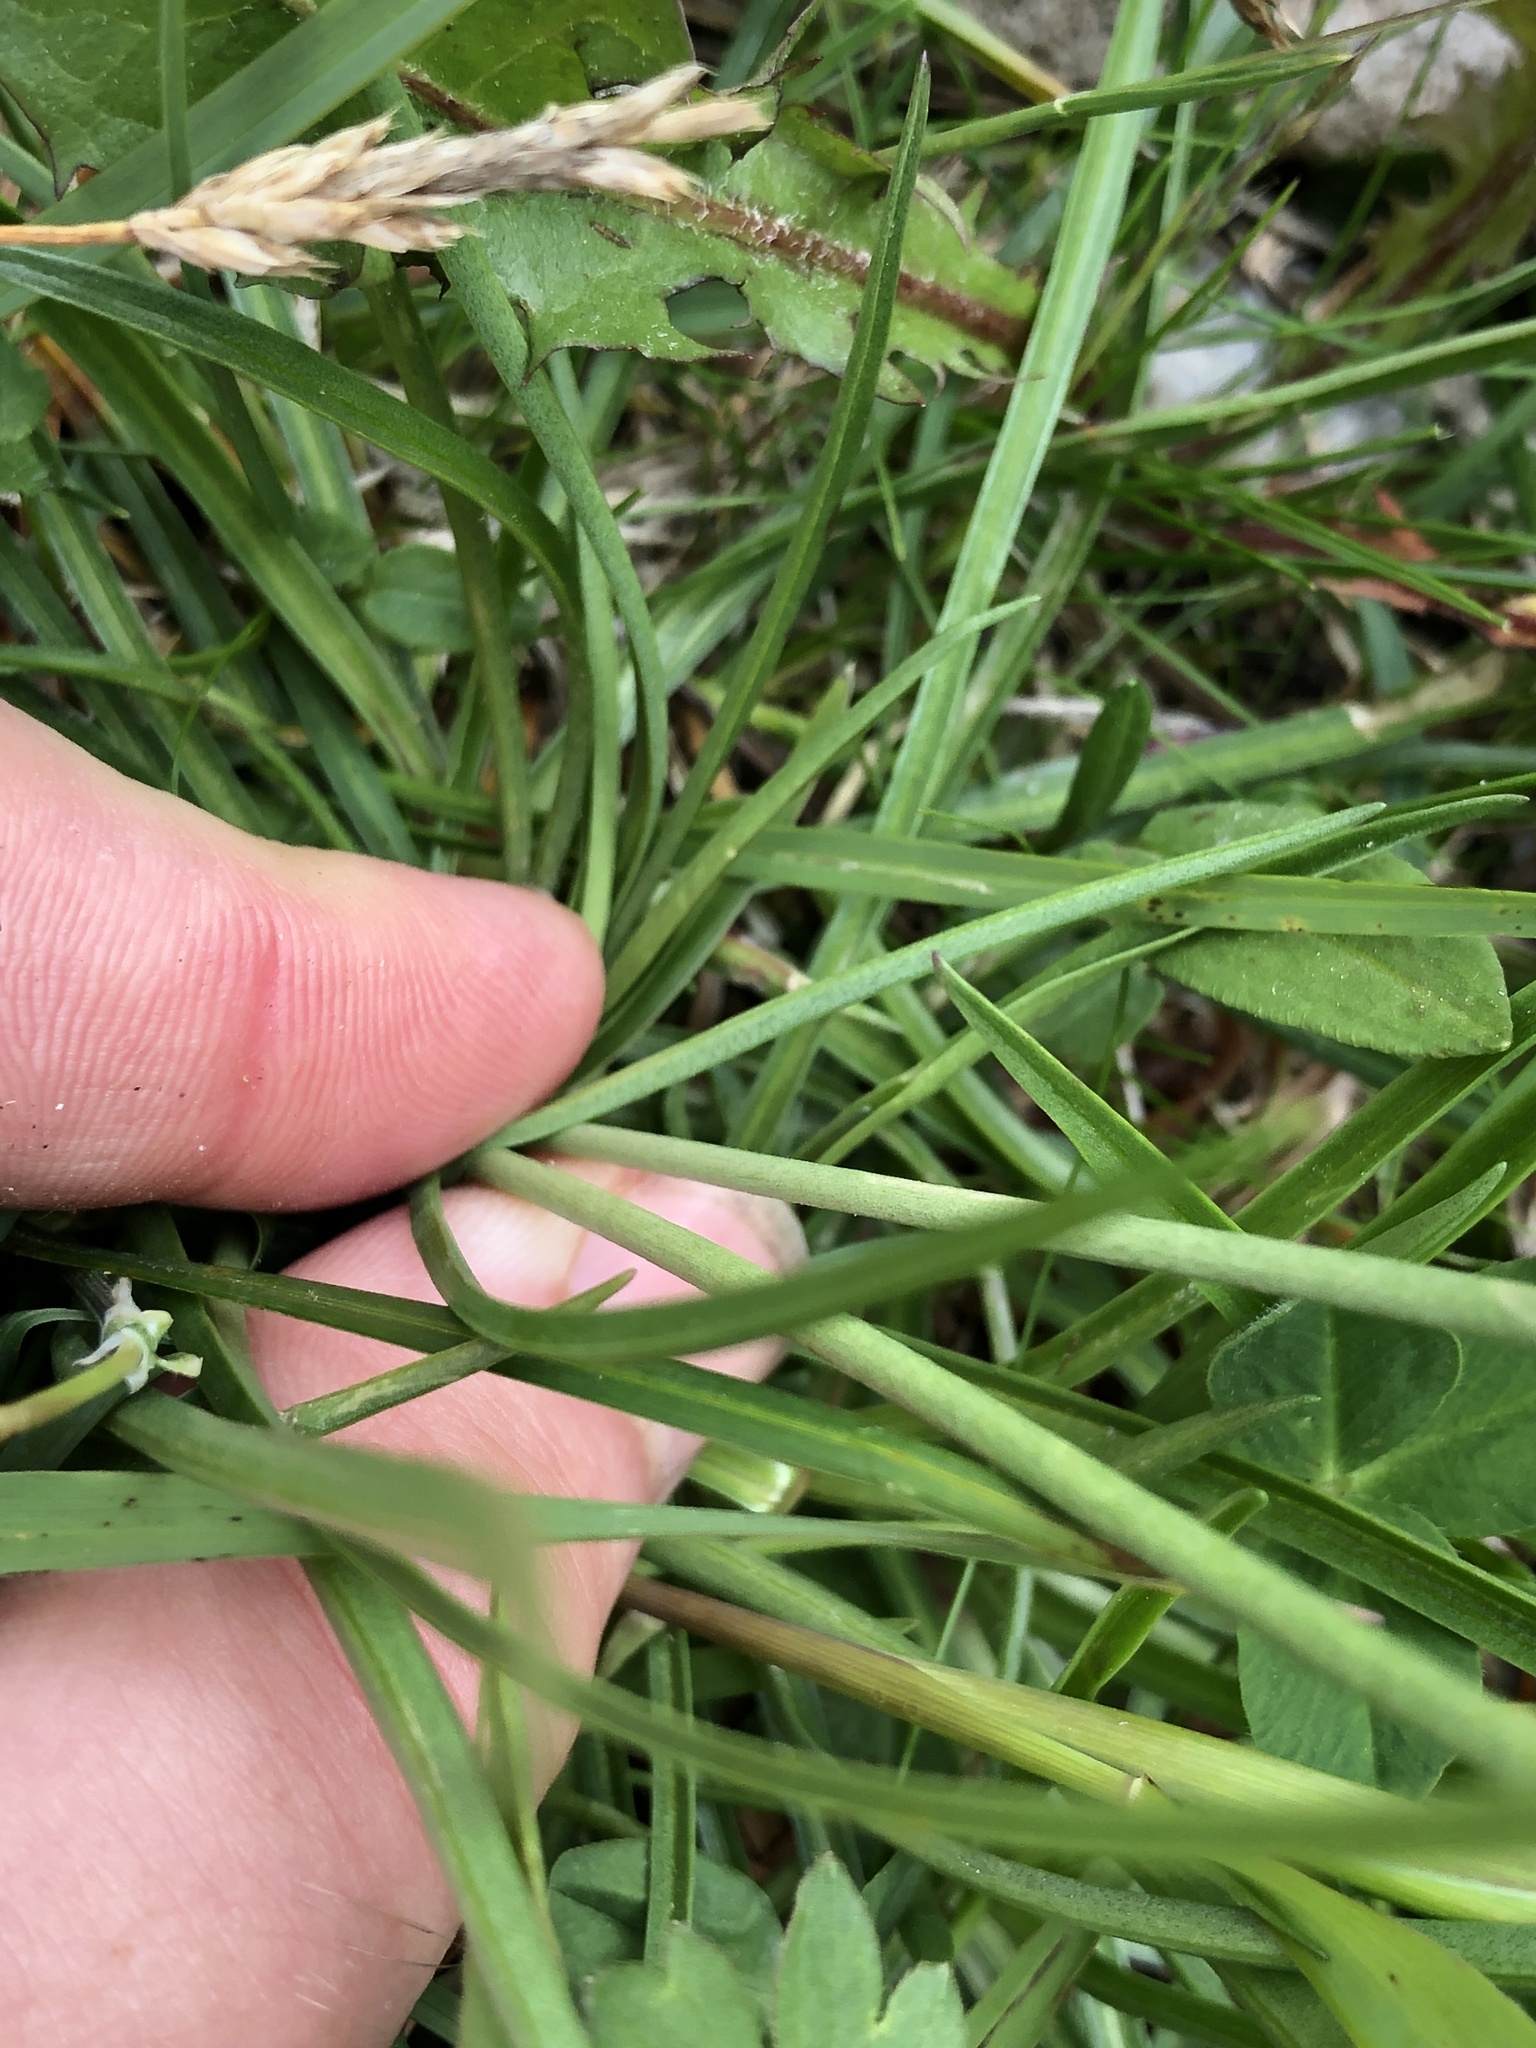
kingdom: Plantae
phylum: Tracheophyta
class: Magnoliopsida
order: Caryophyllales
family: Plumbaginaceae
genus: Armeria
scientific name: Armeria alpina
